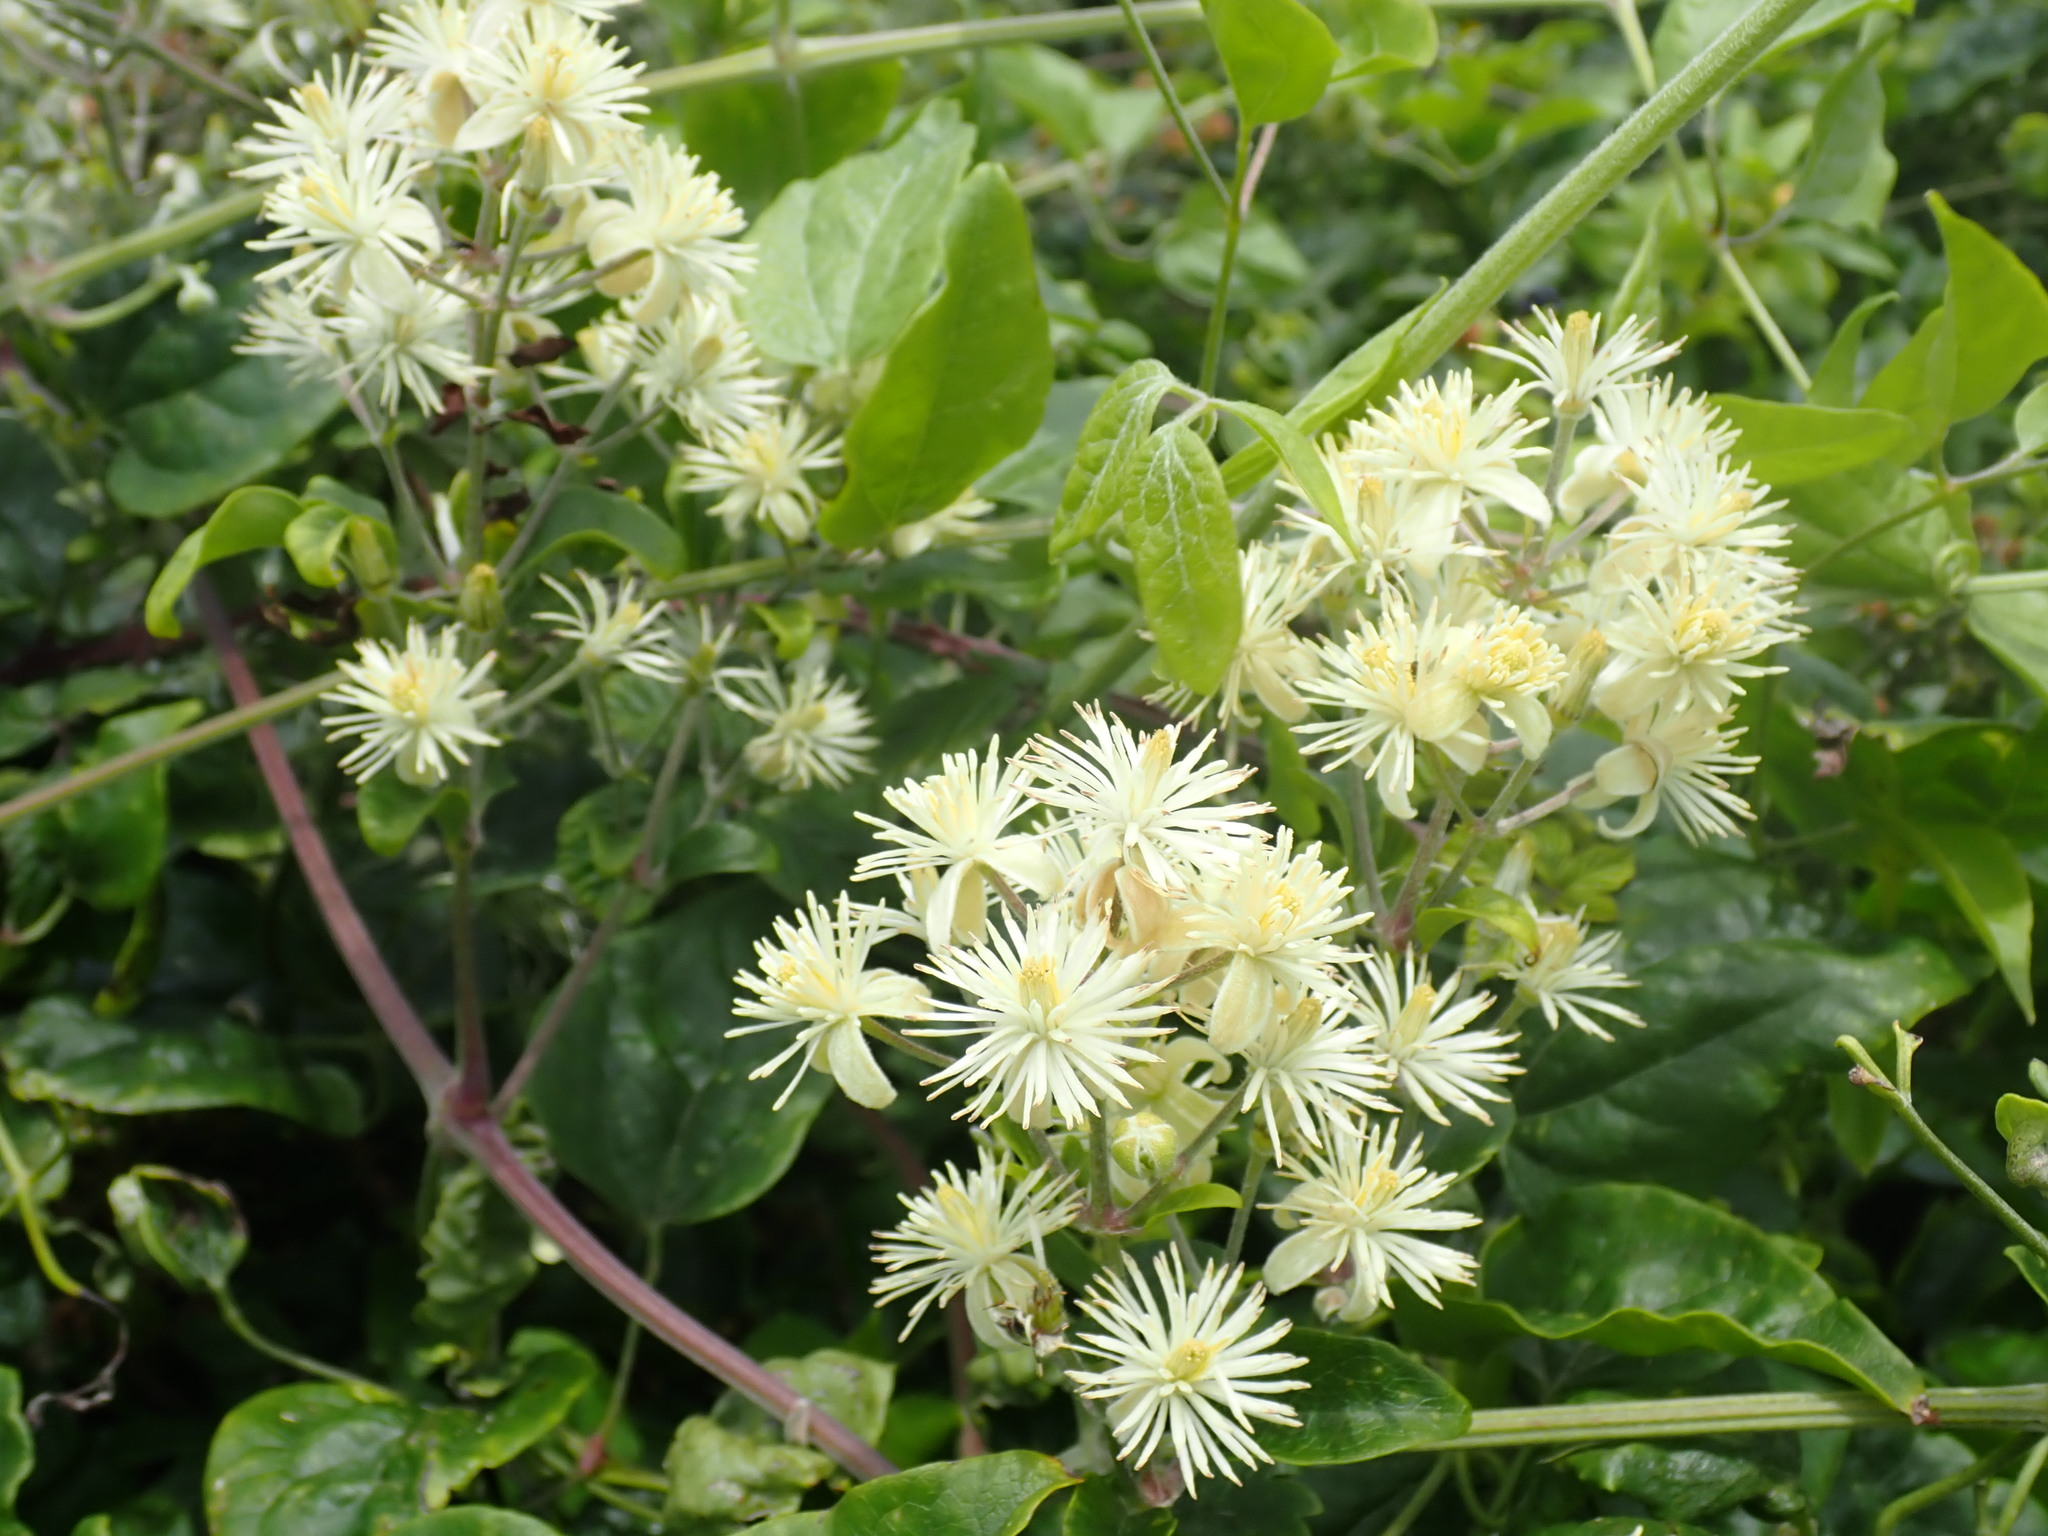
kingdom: Plantae
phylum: Tracheophyta
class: Magnoliopsida
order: Ranunculales
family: Ranunculaceae
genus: Clematis
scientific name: Clematis vitalba
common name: Evergreen clematis
